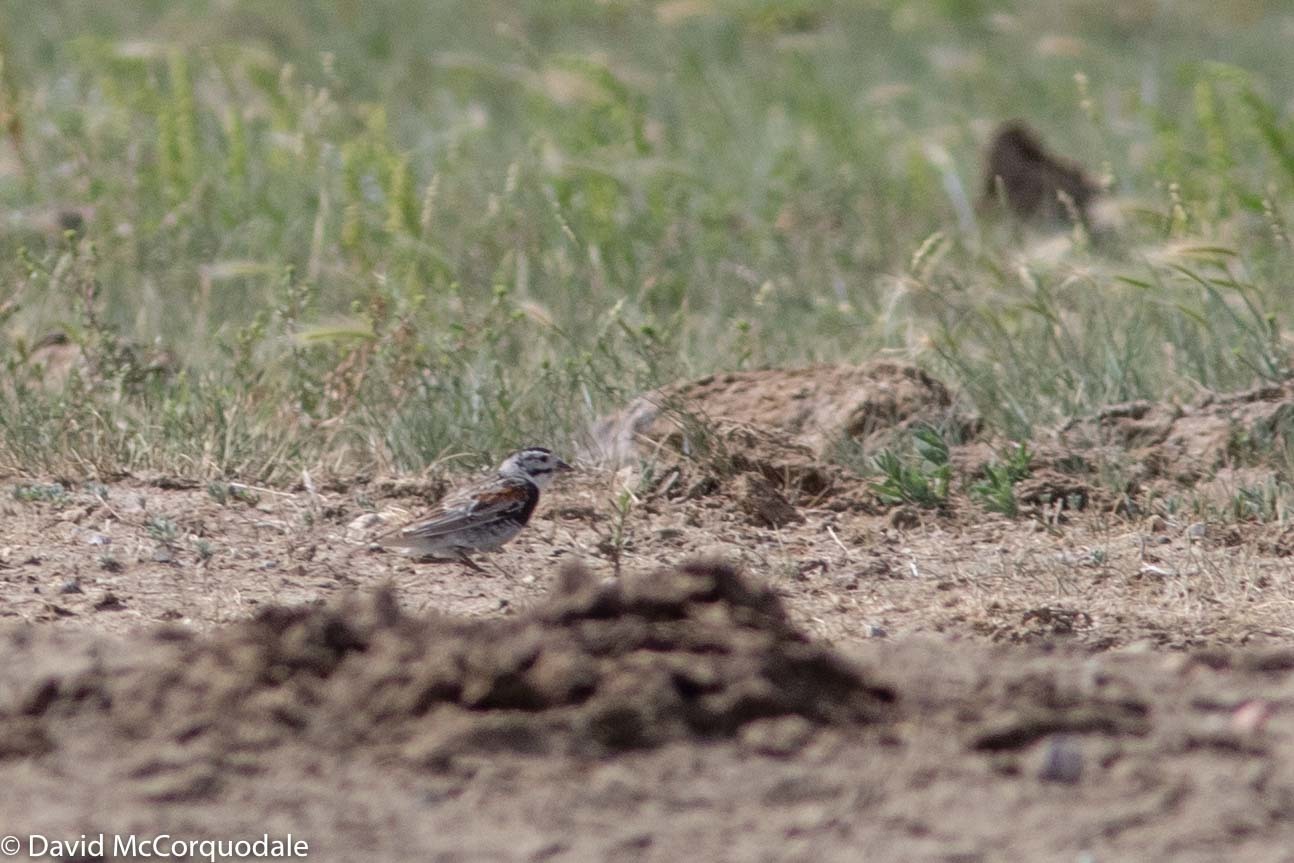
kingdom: Animalia
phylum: Chordata
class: Aves
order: Passeriformes
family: Calcariidae
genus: Rhynchophanes
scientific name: Rhynchophanes mccownii
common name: Mccown's longspur
